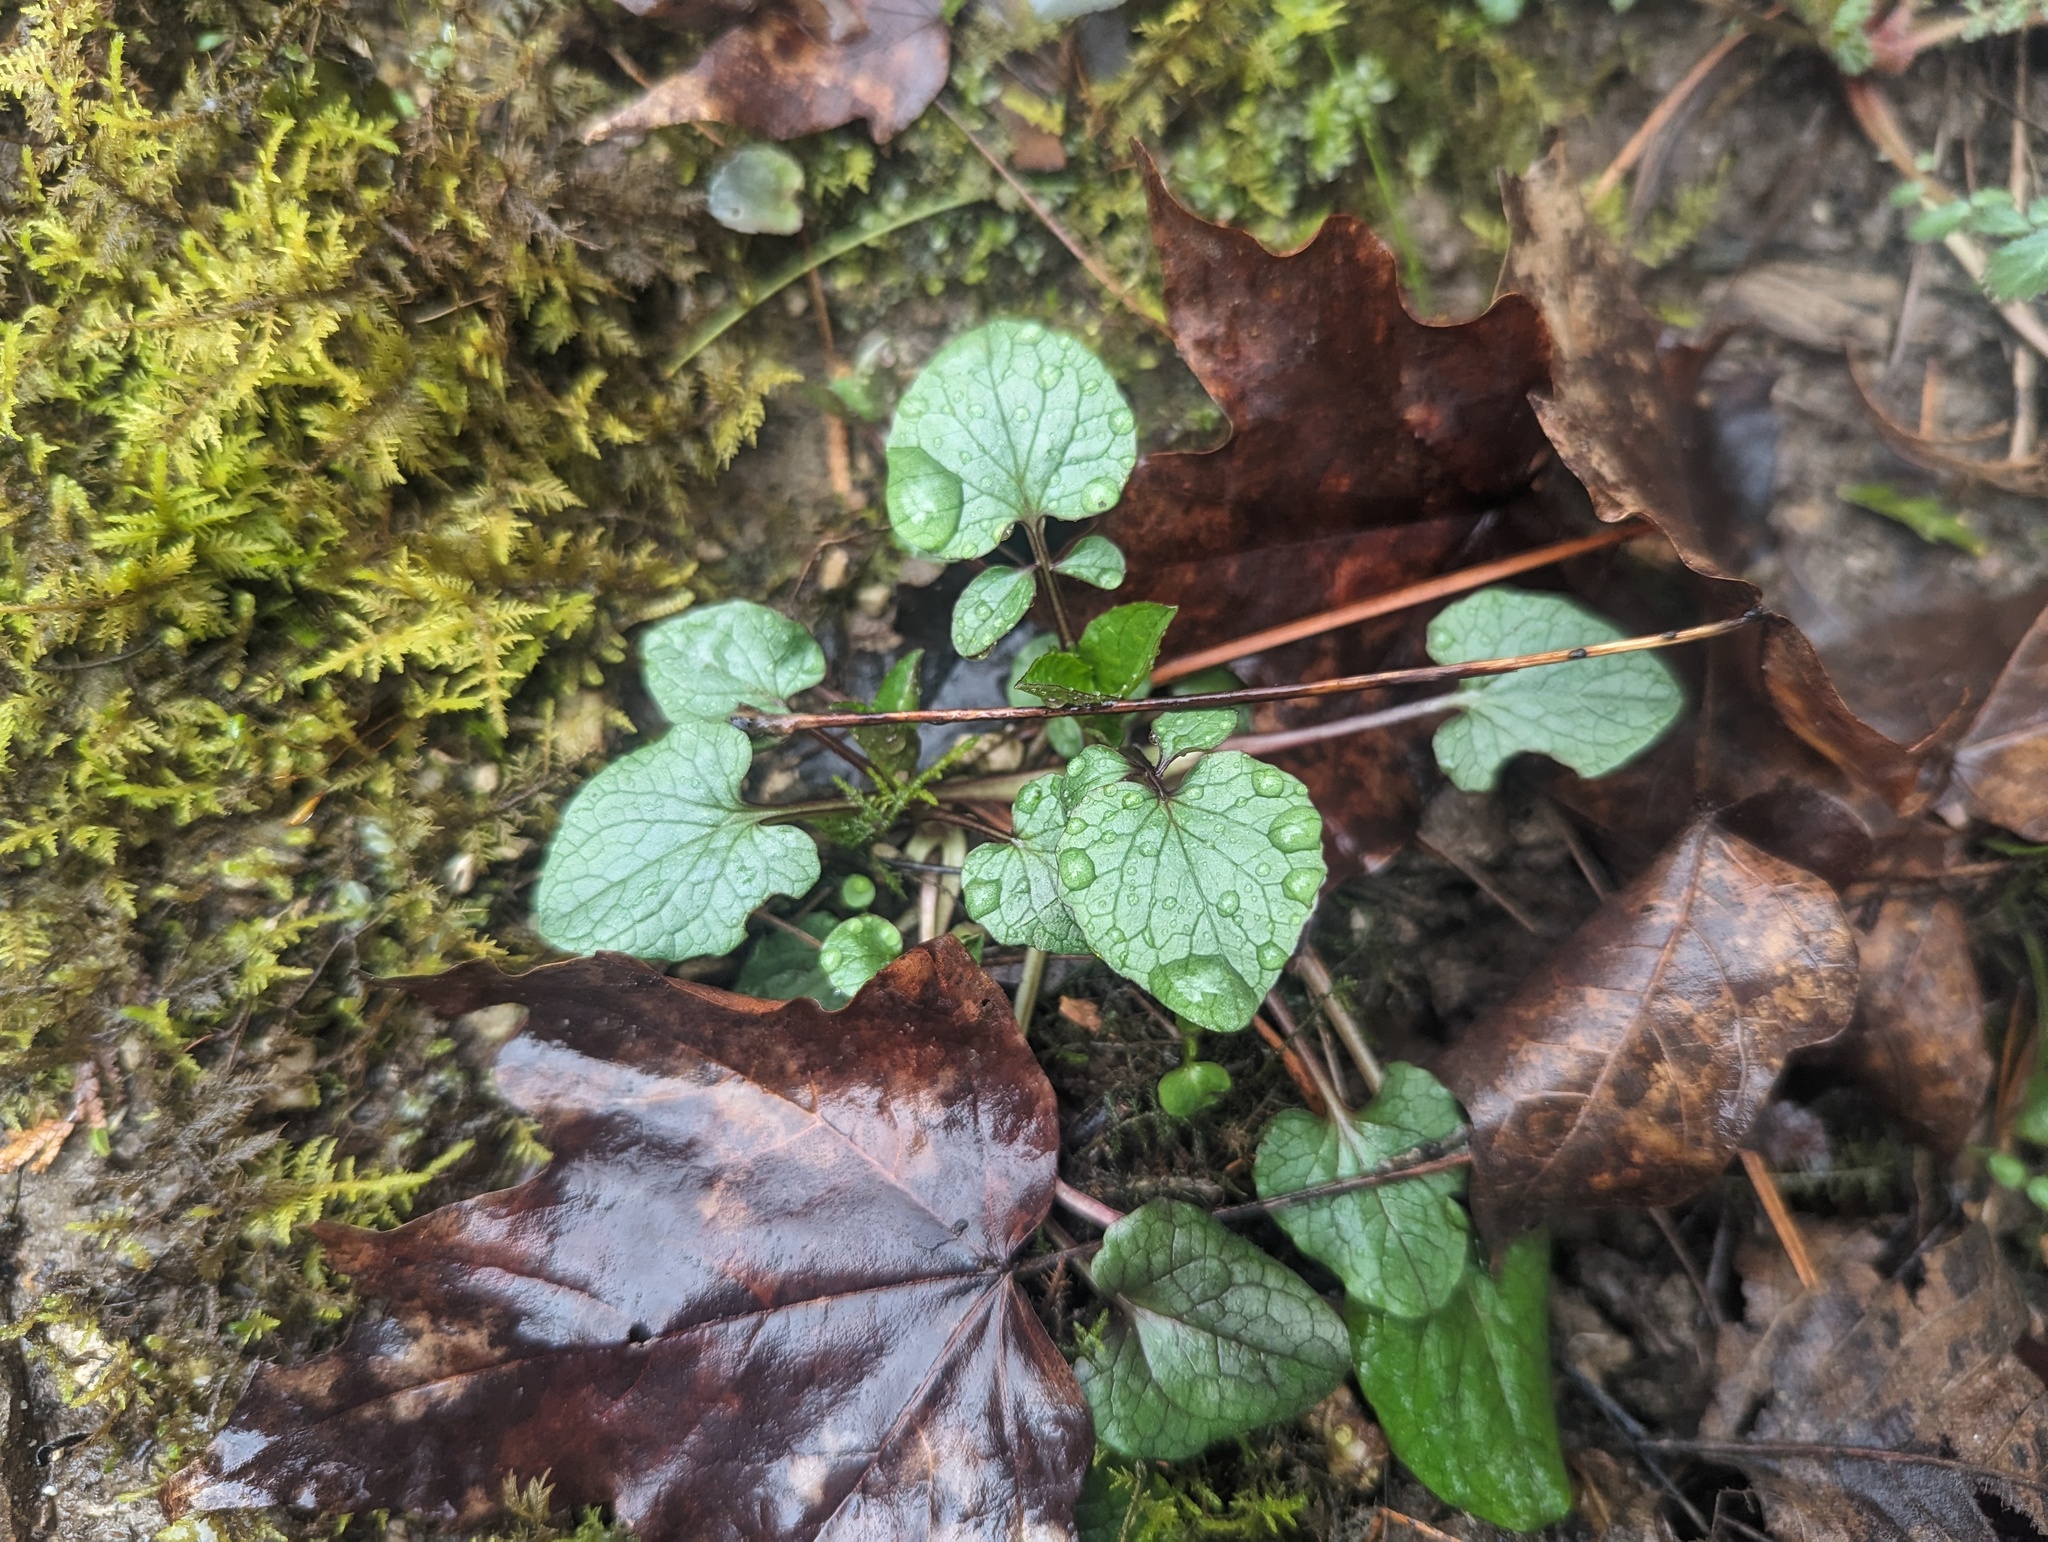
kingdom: Plantae
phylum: Tracheophyta
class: Magnoliopsida
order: Dipsacales
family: Caprifoliaceae
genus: Valeriana
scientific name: Valeriana pauciflora
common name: Long-tube valeriana
